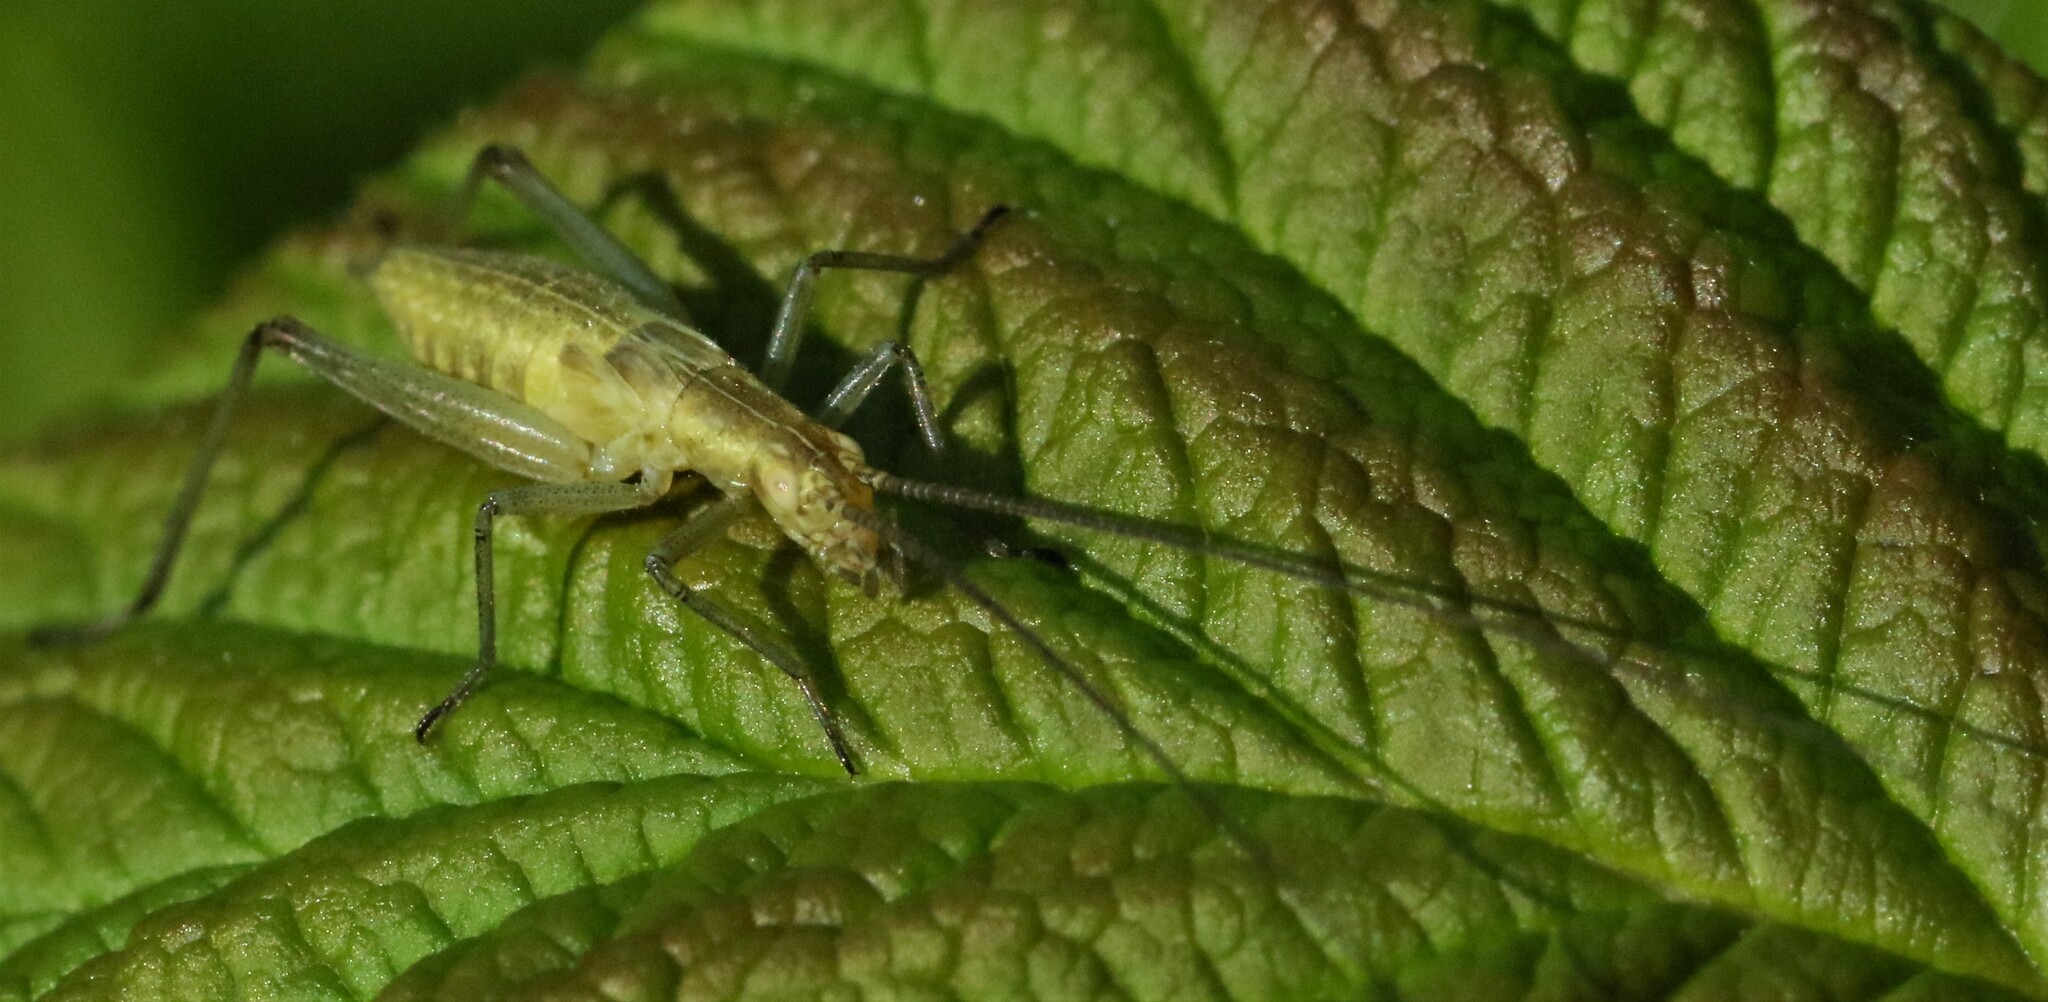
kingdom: Animalia
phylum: Arthropoda
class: Insecta
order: Orthoptera
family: Gryllidae
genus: Oecanthus
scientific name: Oecanthus nigricornis
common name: Black-horned tree cricket
